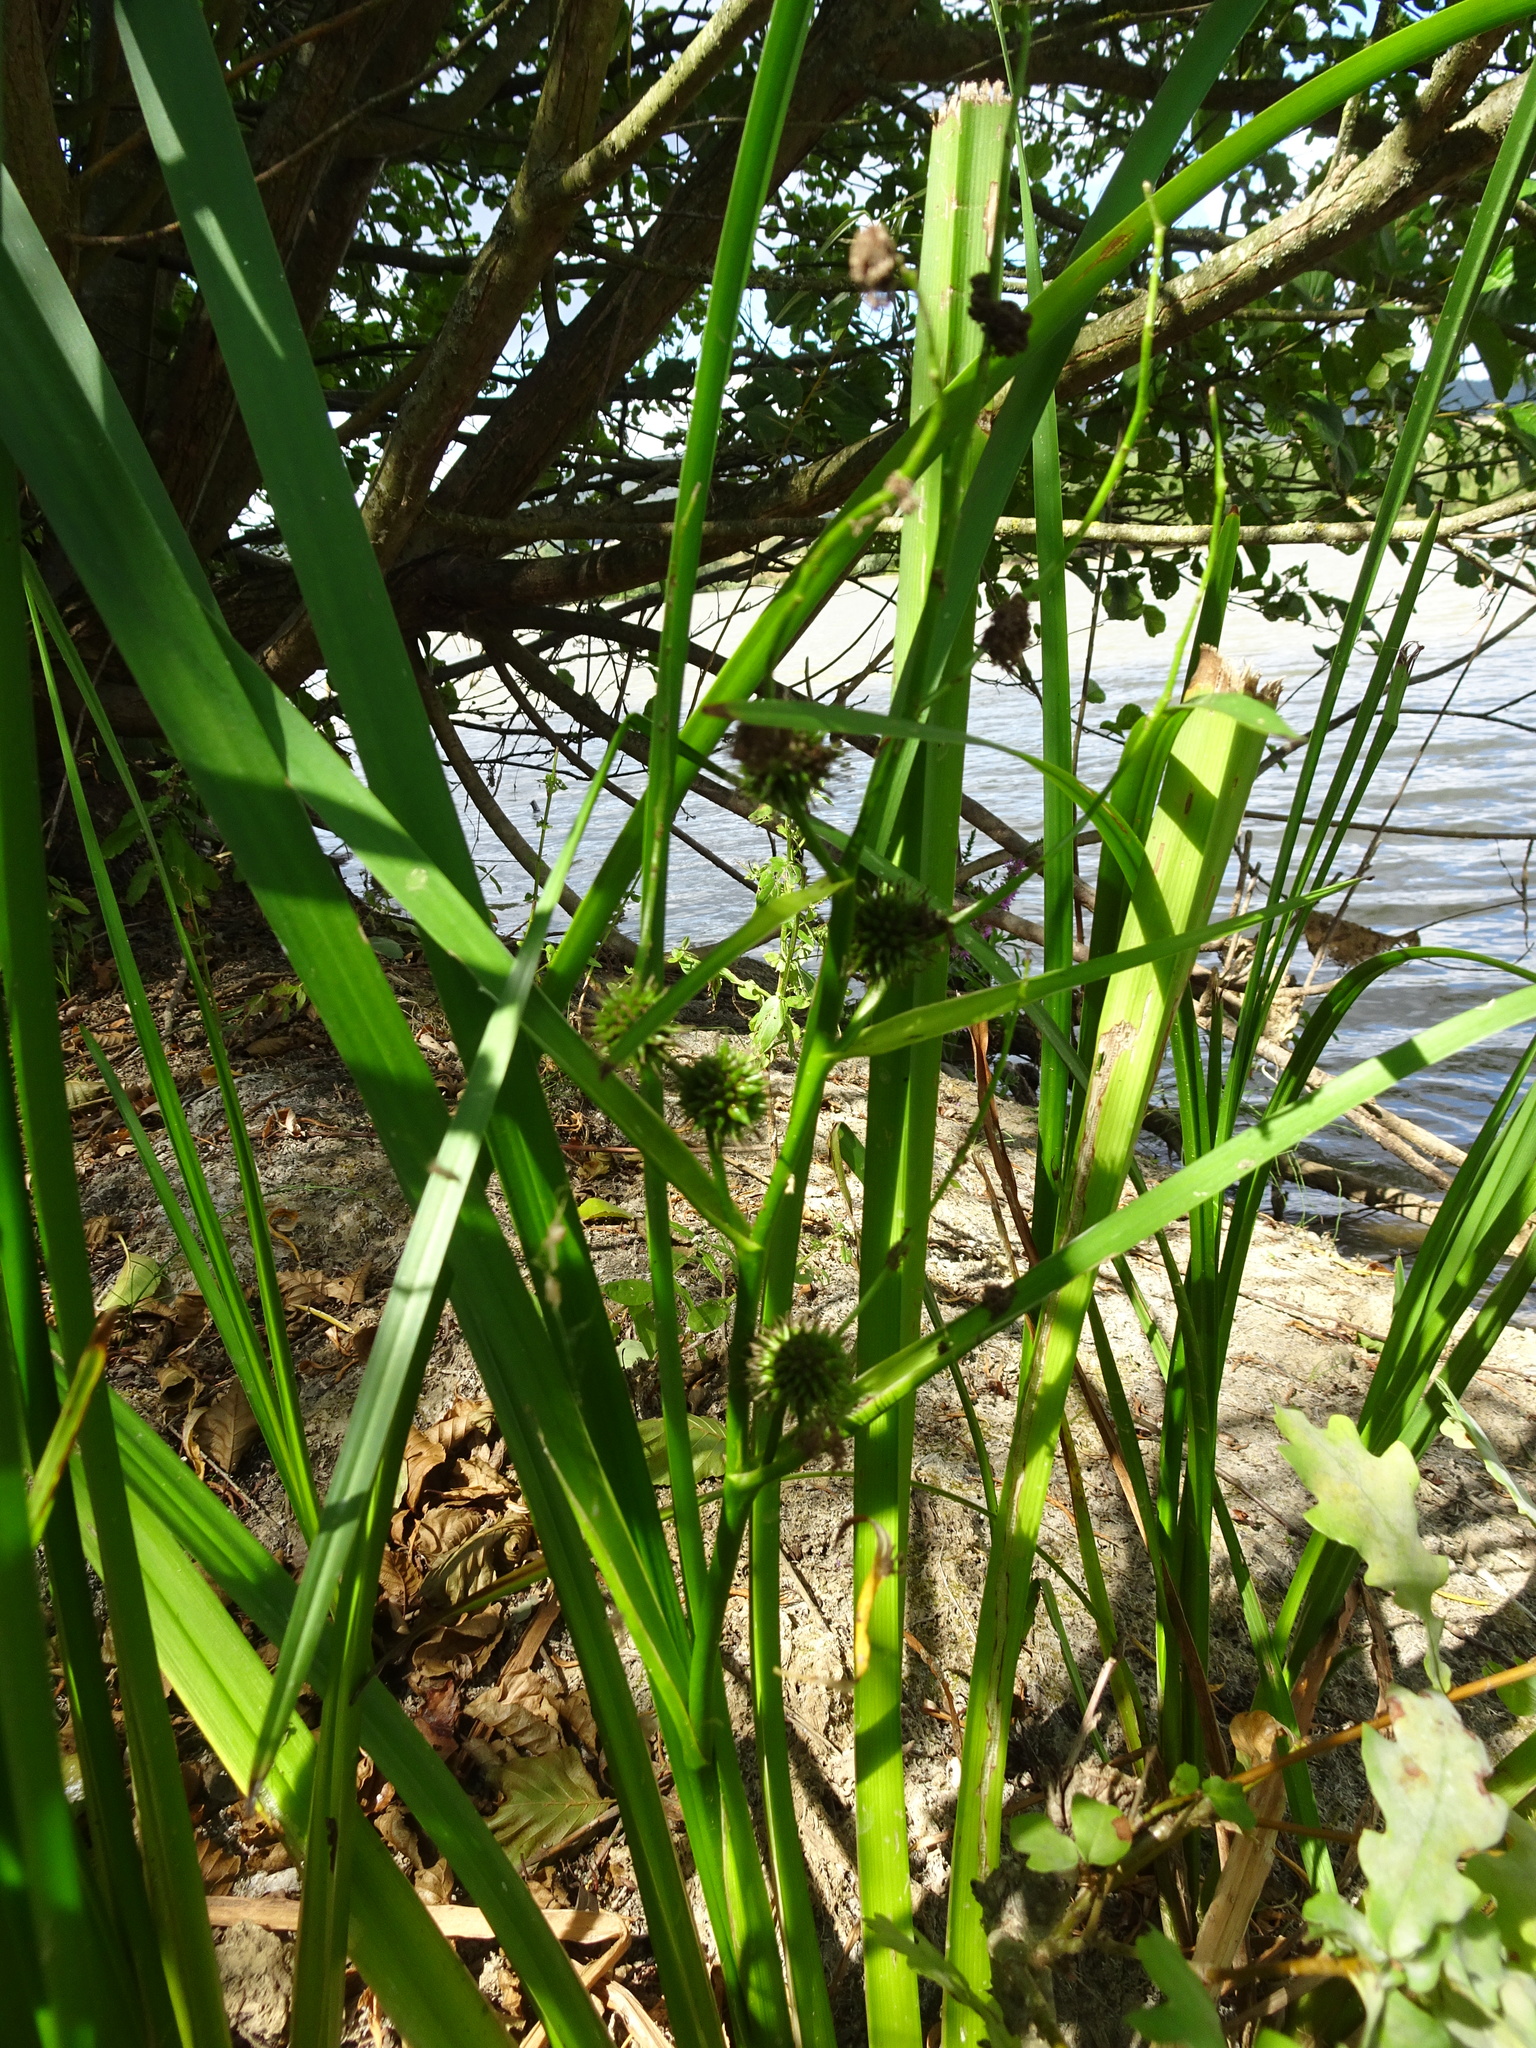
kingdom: Plantae
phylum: Tracheophyta
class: Liliopsida
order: Poales
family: Typhaceae
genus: Sparganium
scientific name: Sparganium erectum
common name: Branched bur-reed
